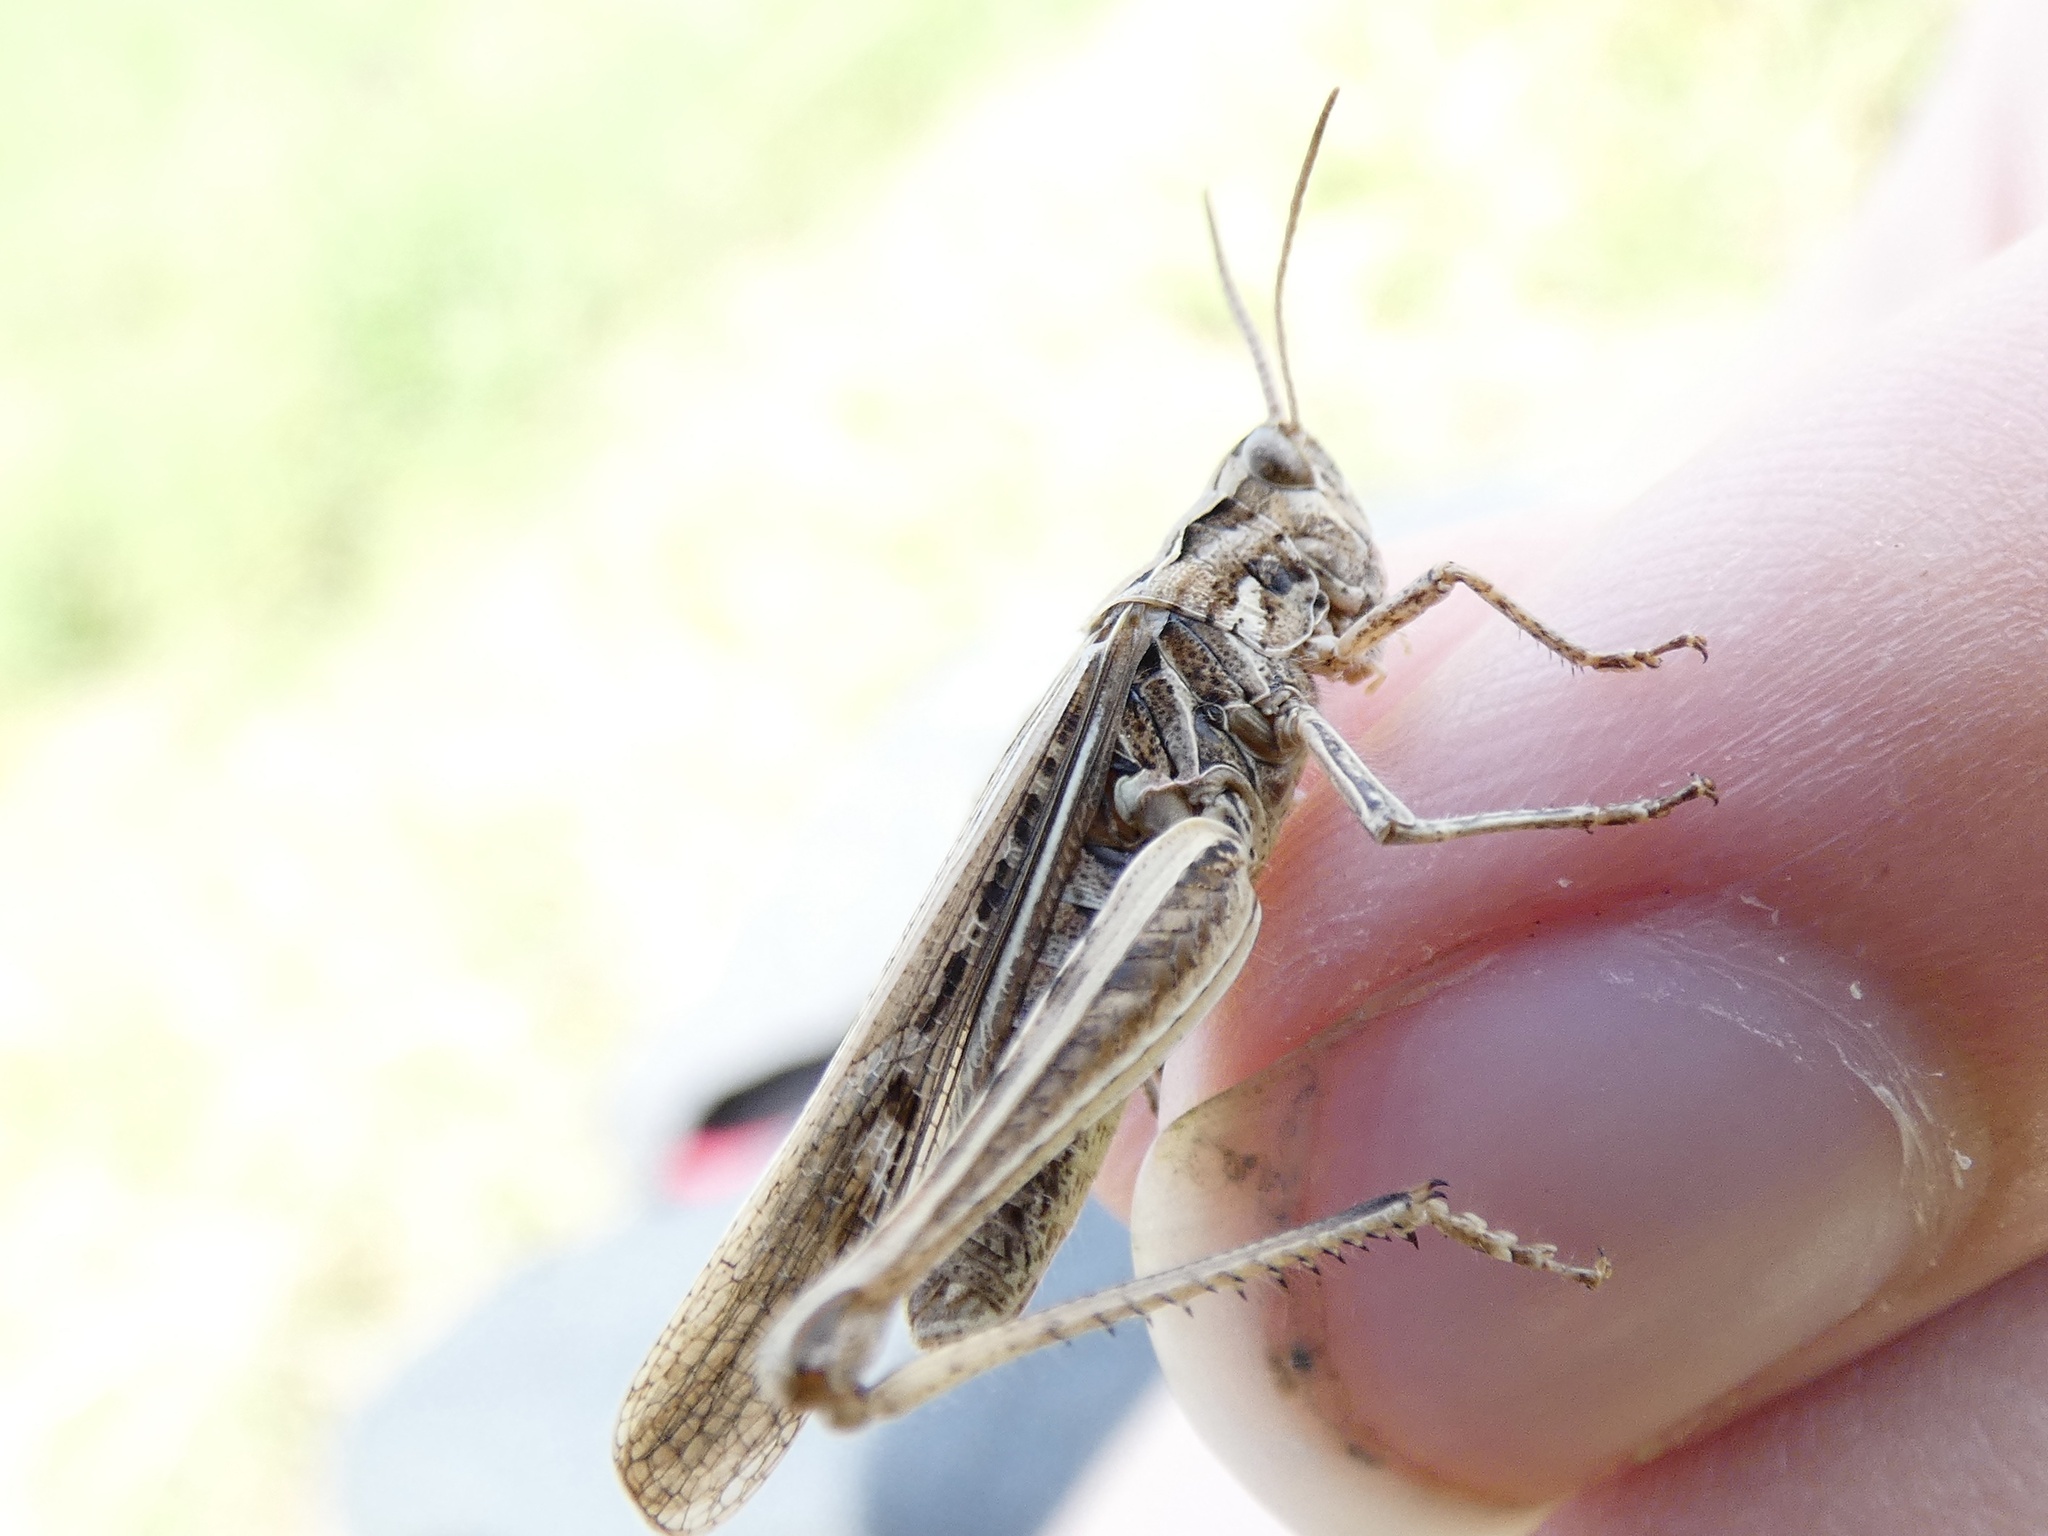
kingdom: Animalia
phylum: Arthropoda
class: Insecta
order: Orthoptera
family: Acrididae
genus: Chorthippus
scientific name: Chorthippus brunneus
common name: Field grasshopper
